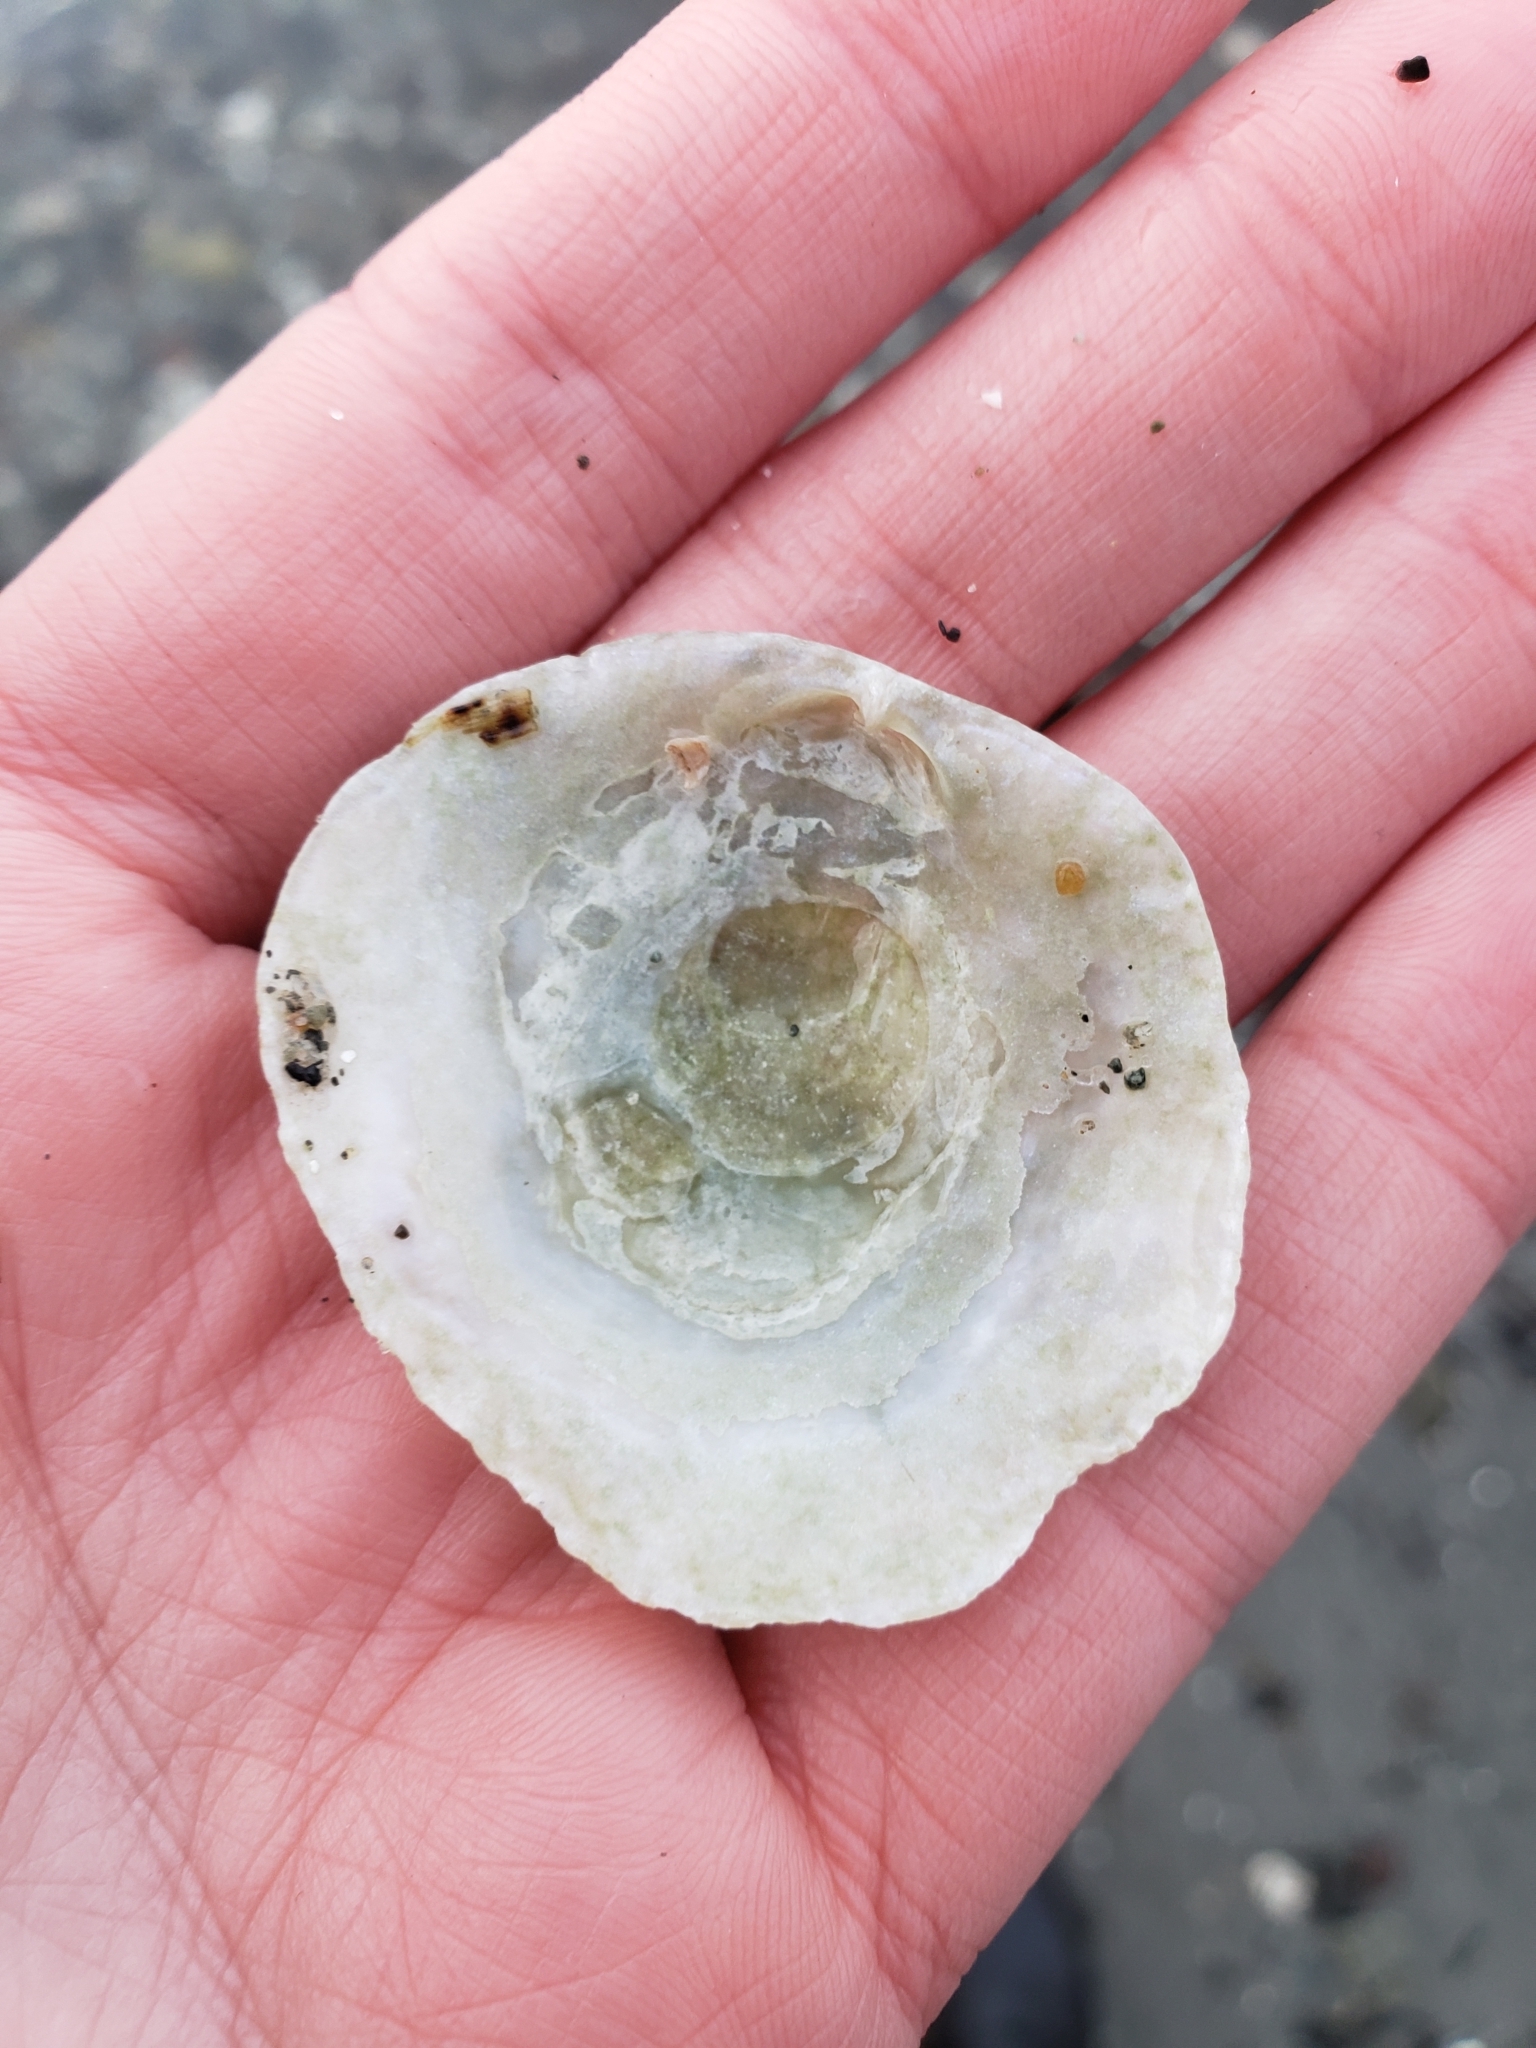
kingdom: Animalia
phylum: Mollusca
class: Bivalvia
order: Pectinida
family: Anomiidae
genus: Pododesmus
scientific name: Pododesmus macrochisma
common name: Alaska jingle
